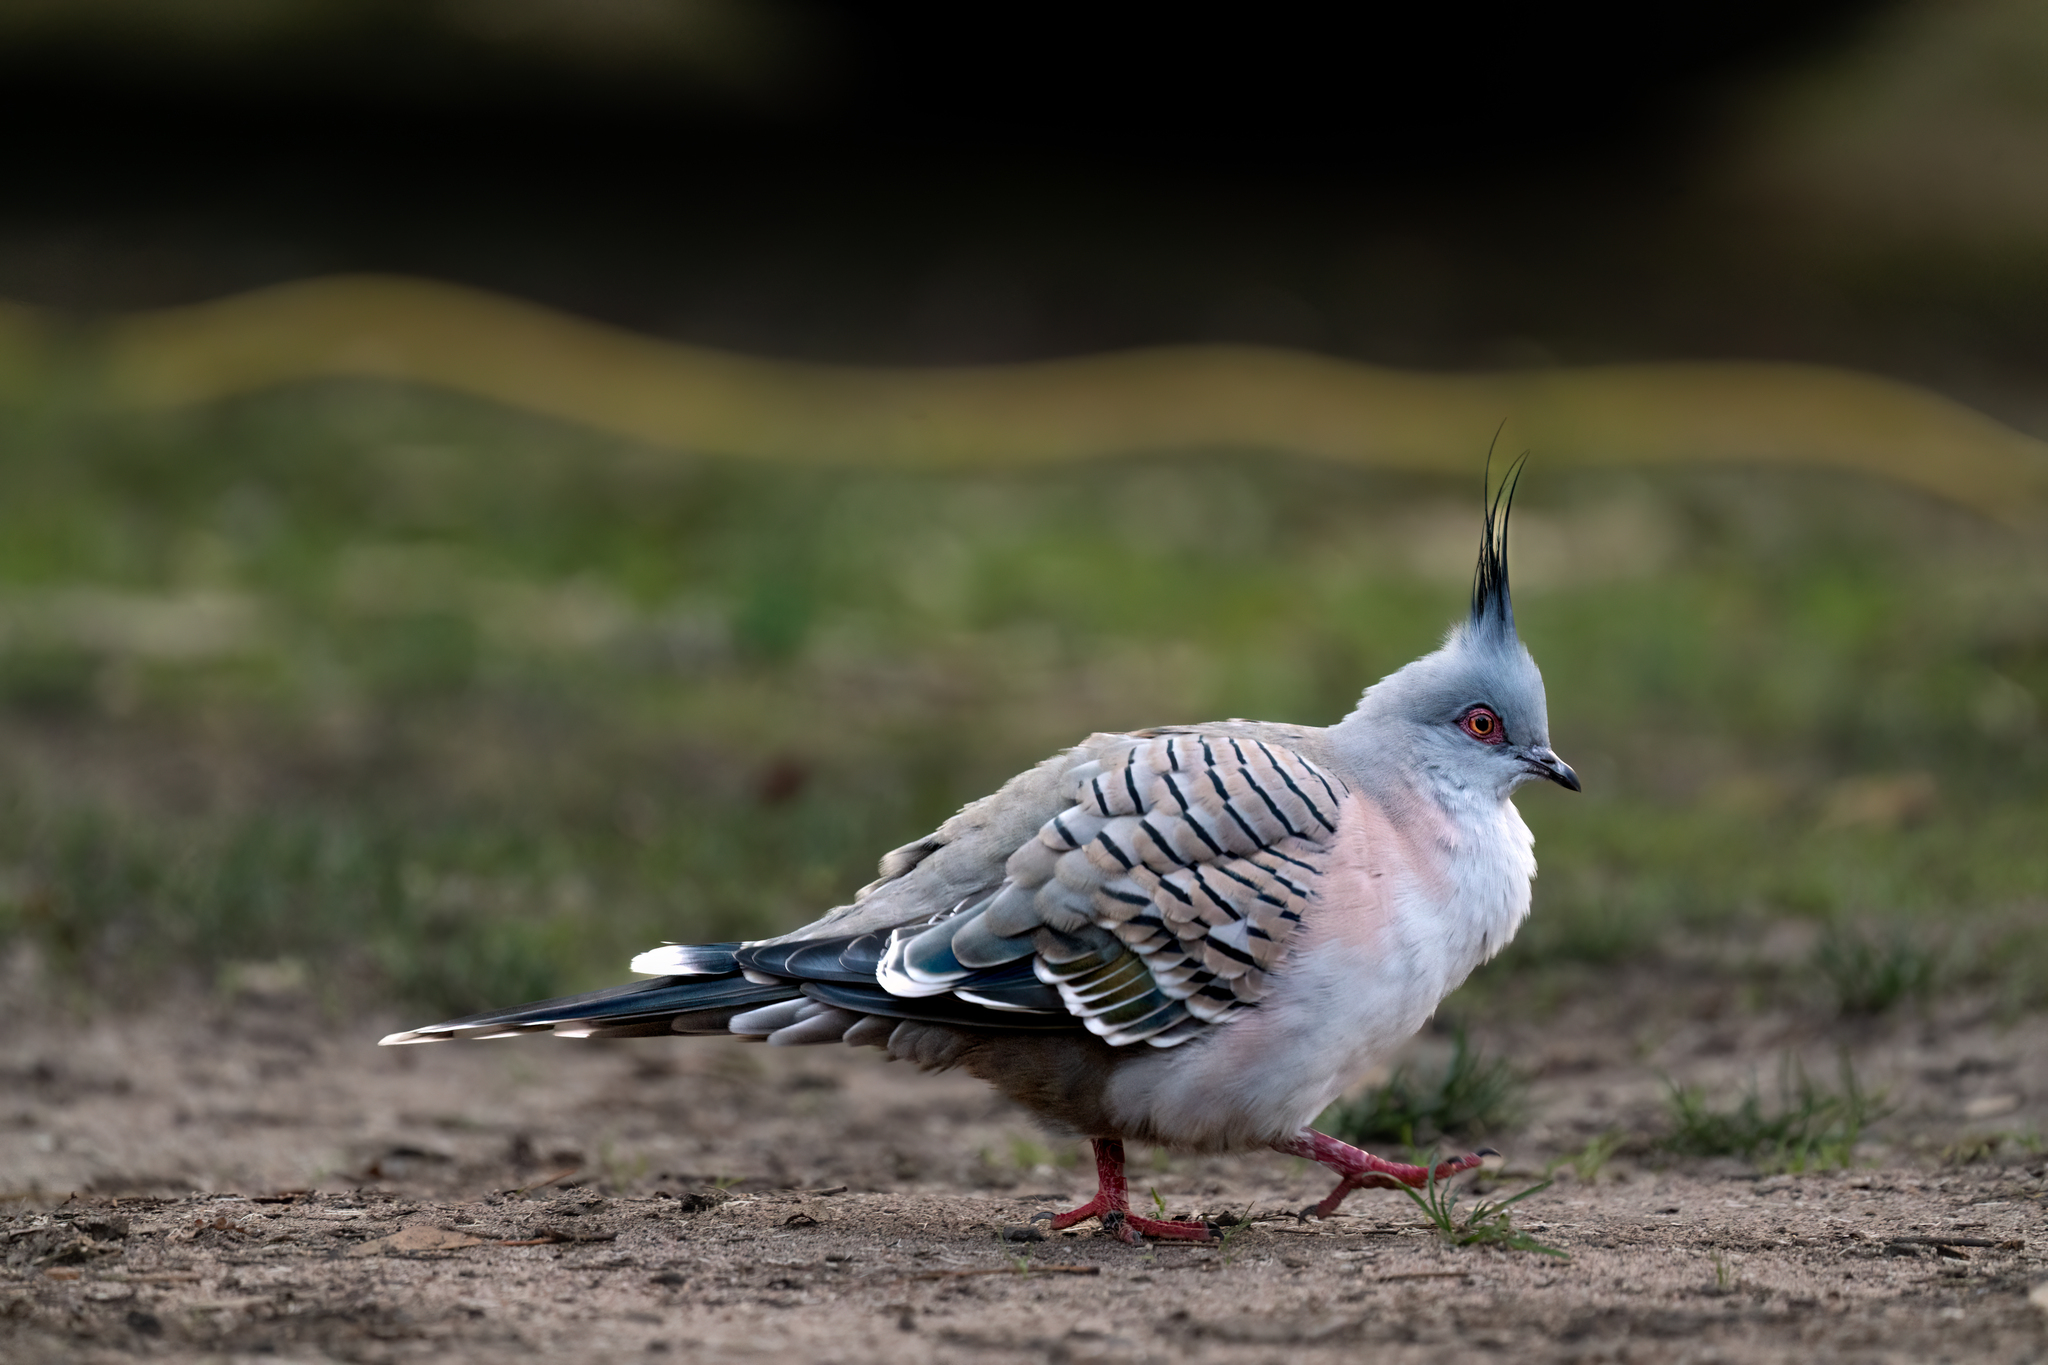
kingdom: Animalia
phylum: Chordata
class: Aves
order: Columbiformes
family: Columbidae
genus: Ocyphaps
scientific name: Ocyphaps lophotes
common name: Crested pigeon
